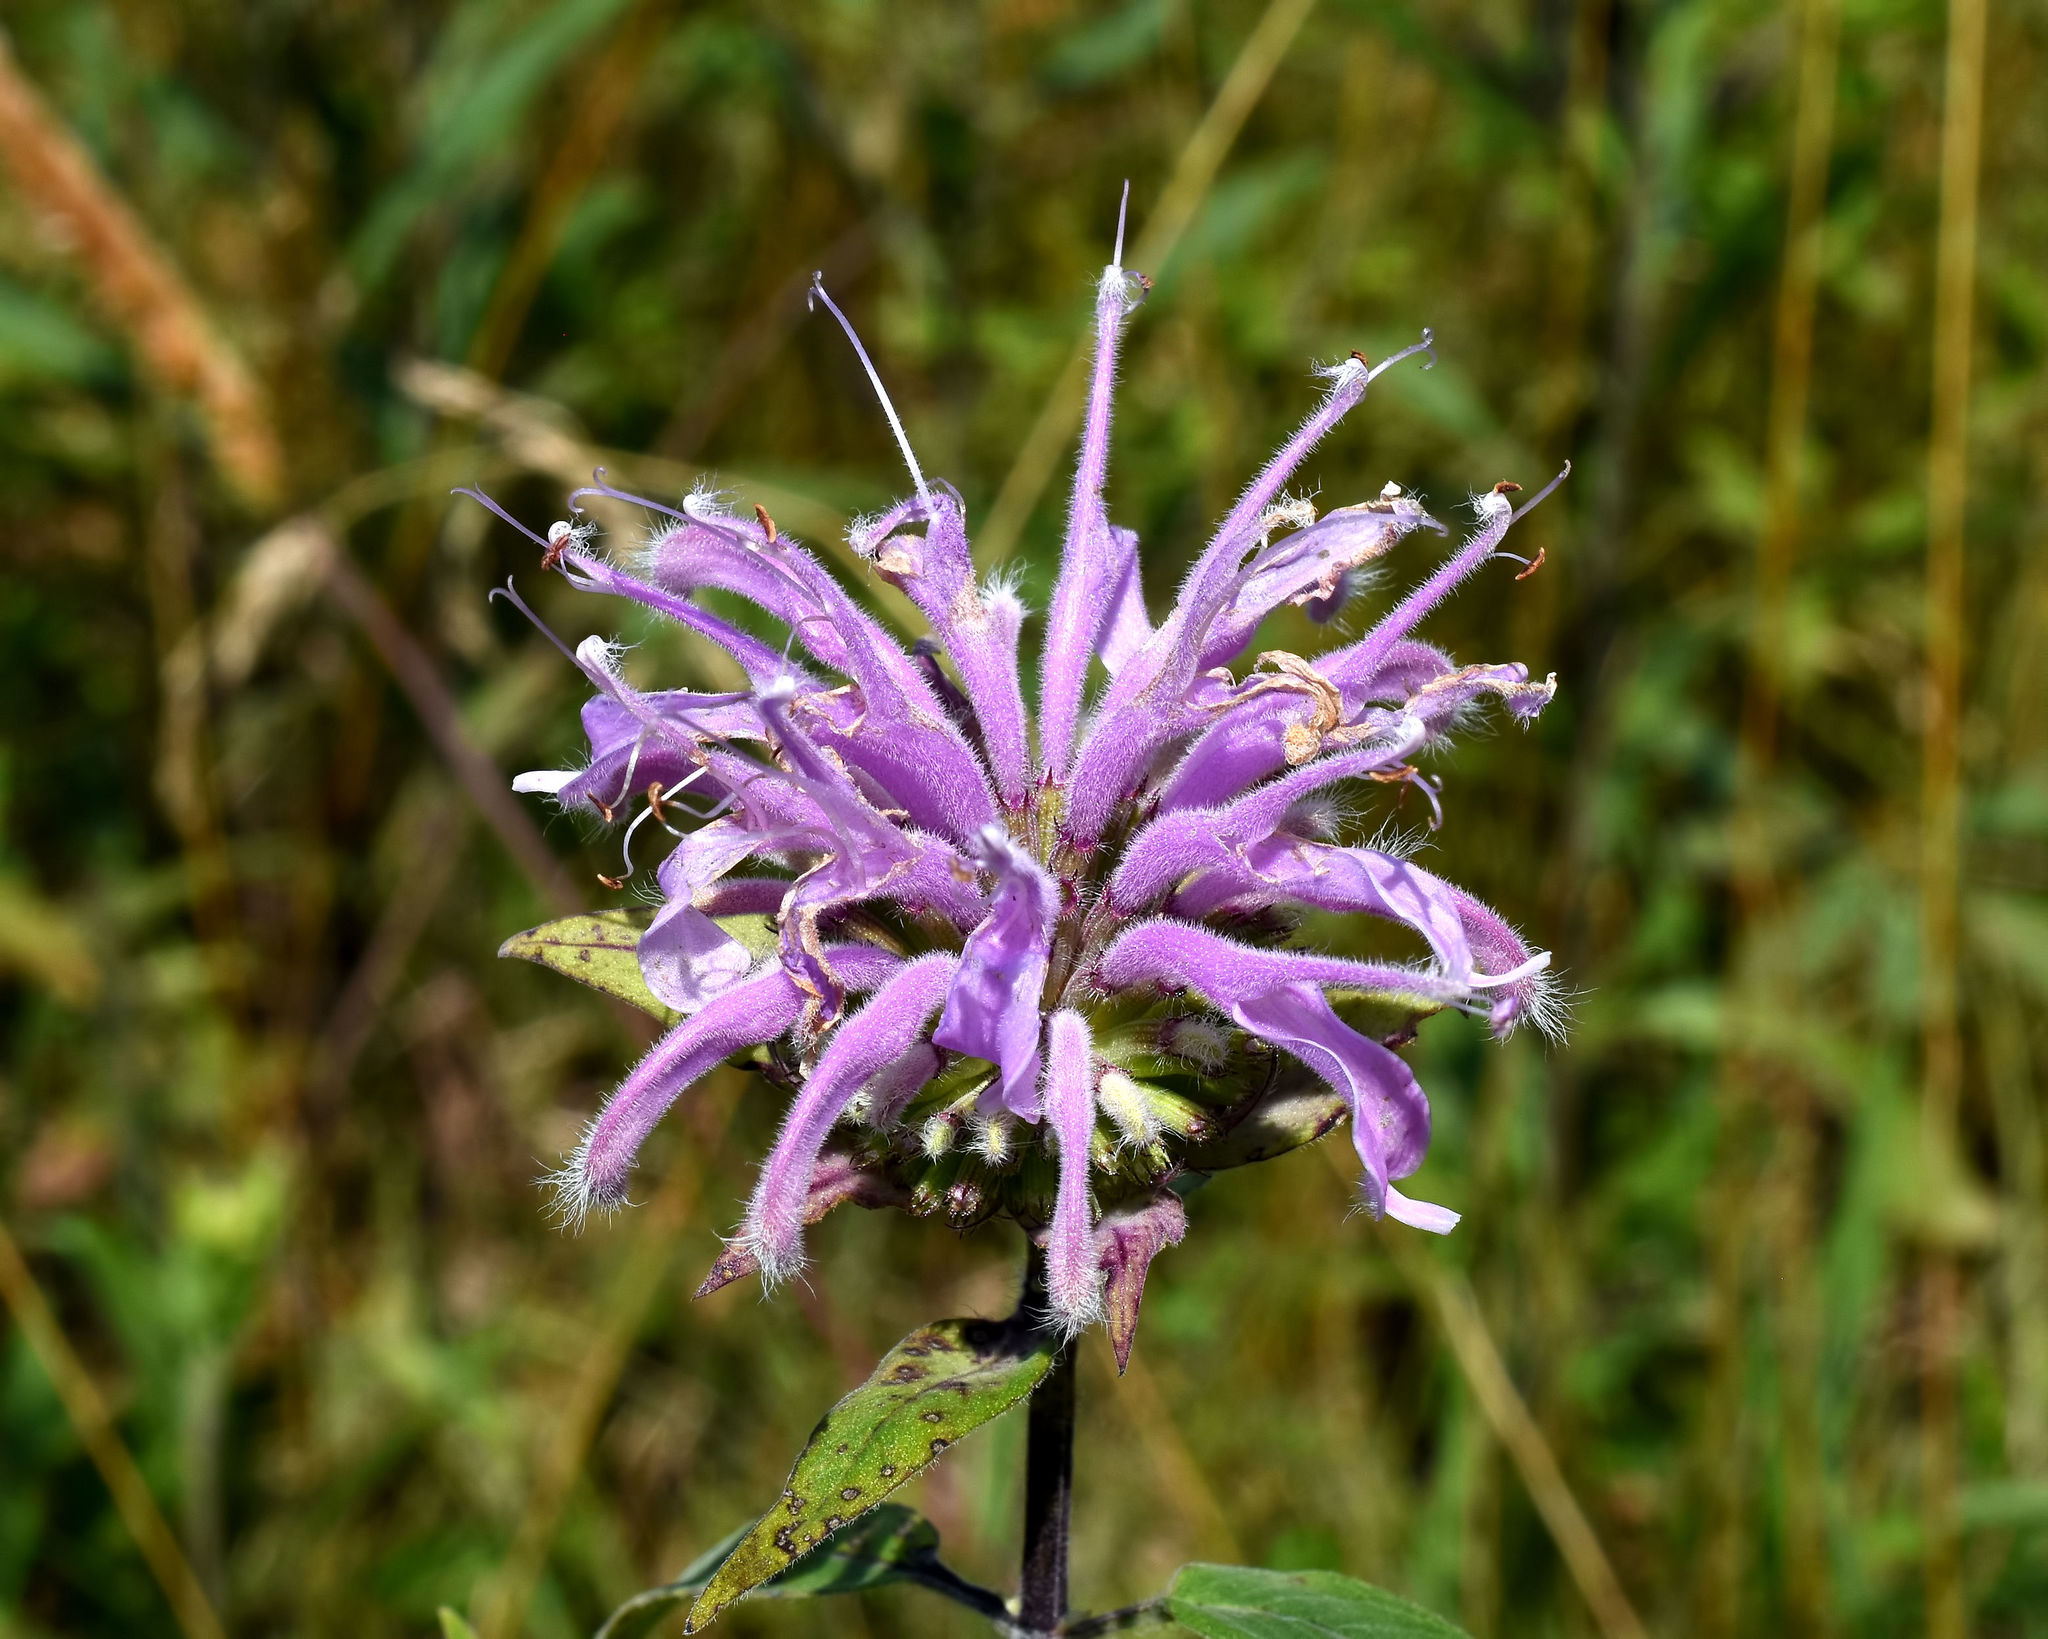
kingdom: Plantae
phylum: Tracheophyta
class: Magnoliopsida
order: Lamiales
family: Lamiaceae
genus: Monarda
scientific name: Monarda fistulosa
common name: Purple beebalm
